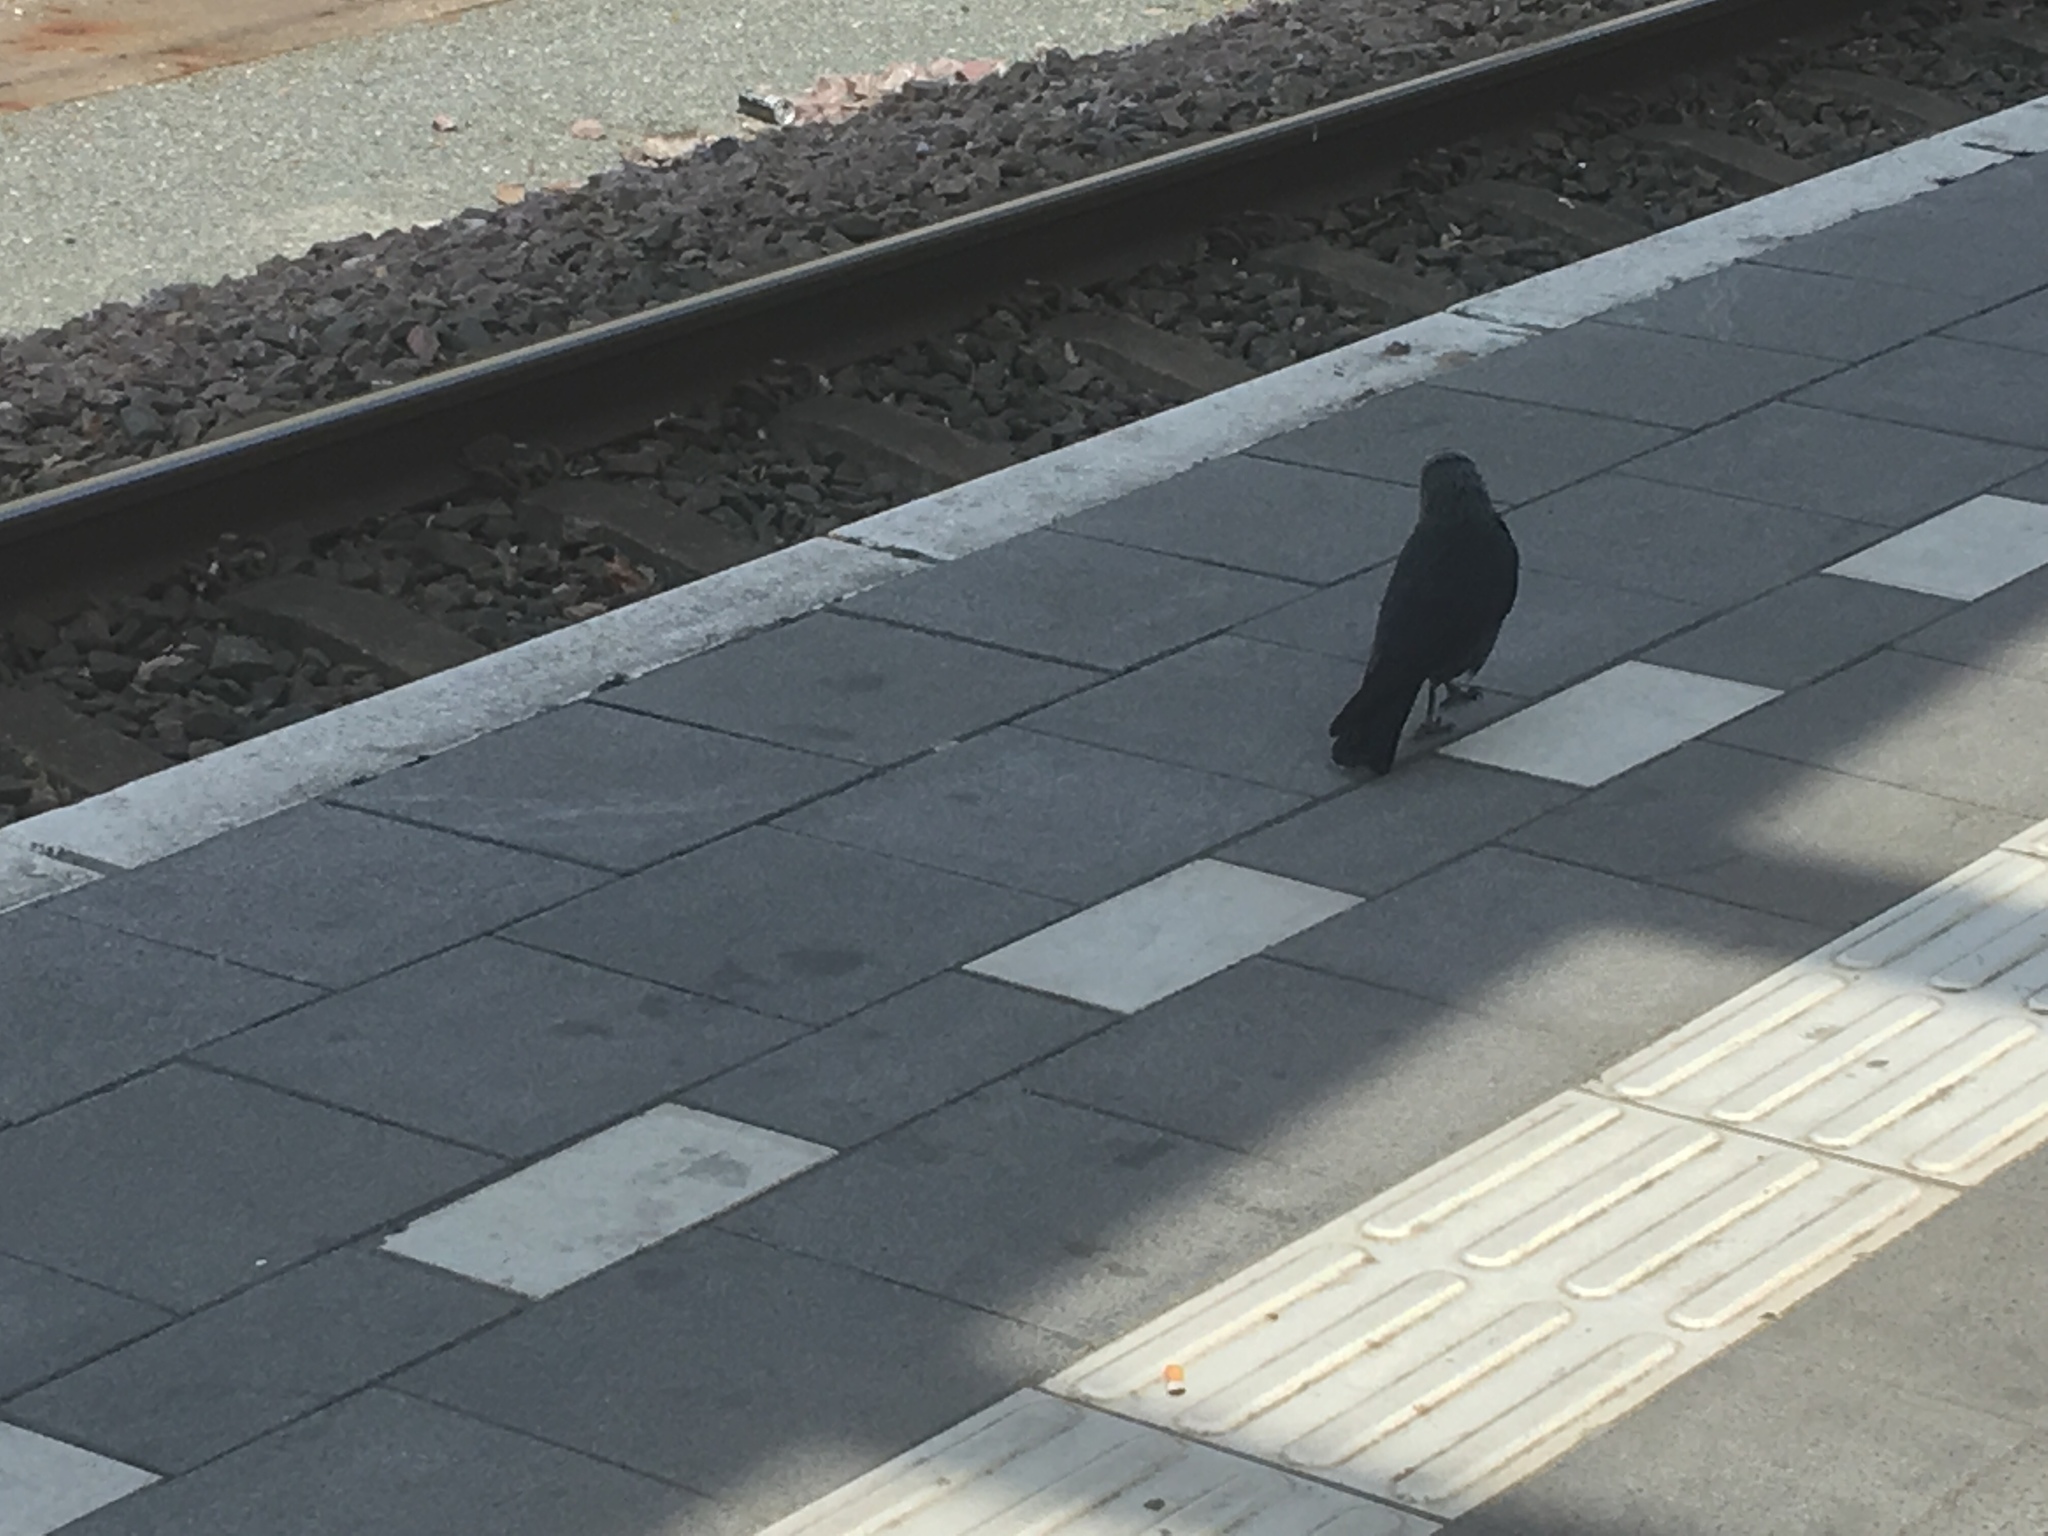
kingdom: Animalia
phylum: Chordata
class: Aves
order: Passeriformes
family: Corvidae
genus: Coloeus
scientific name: Coloeus monedula
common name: Western jackdaw
